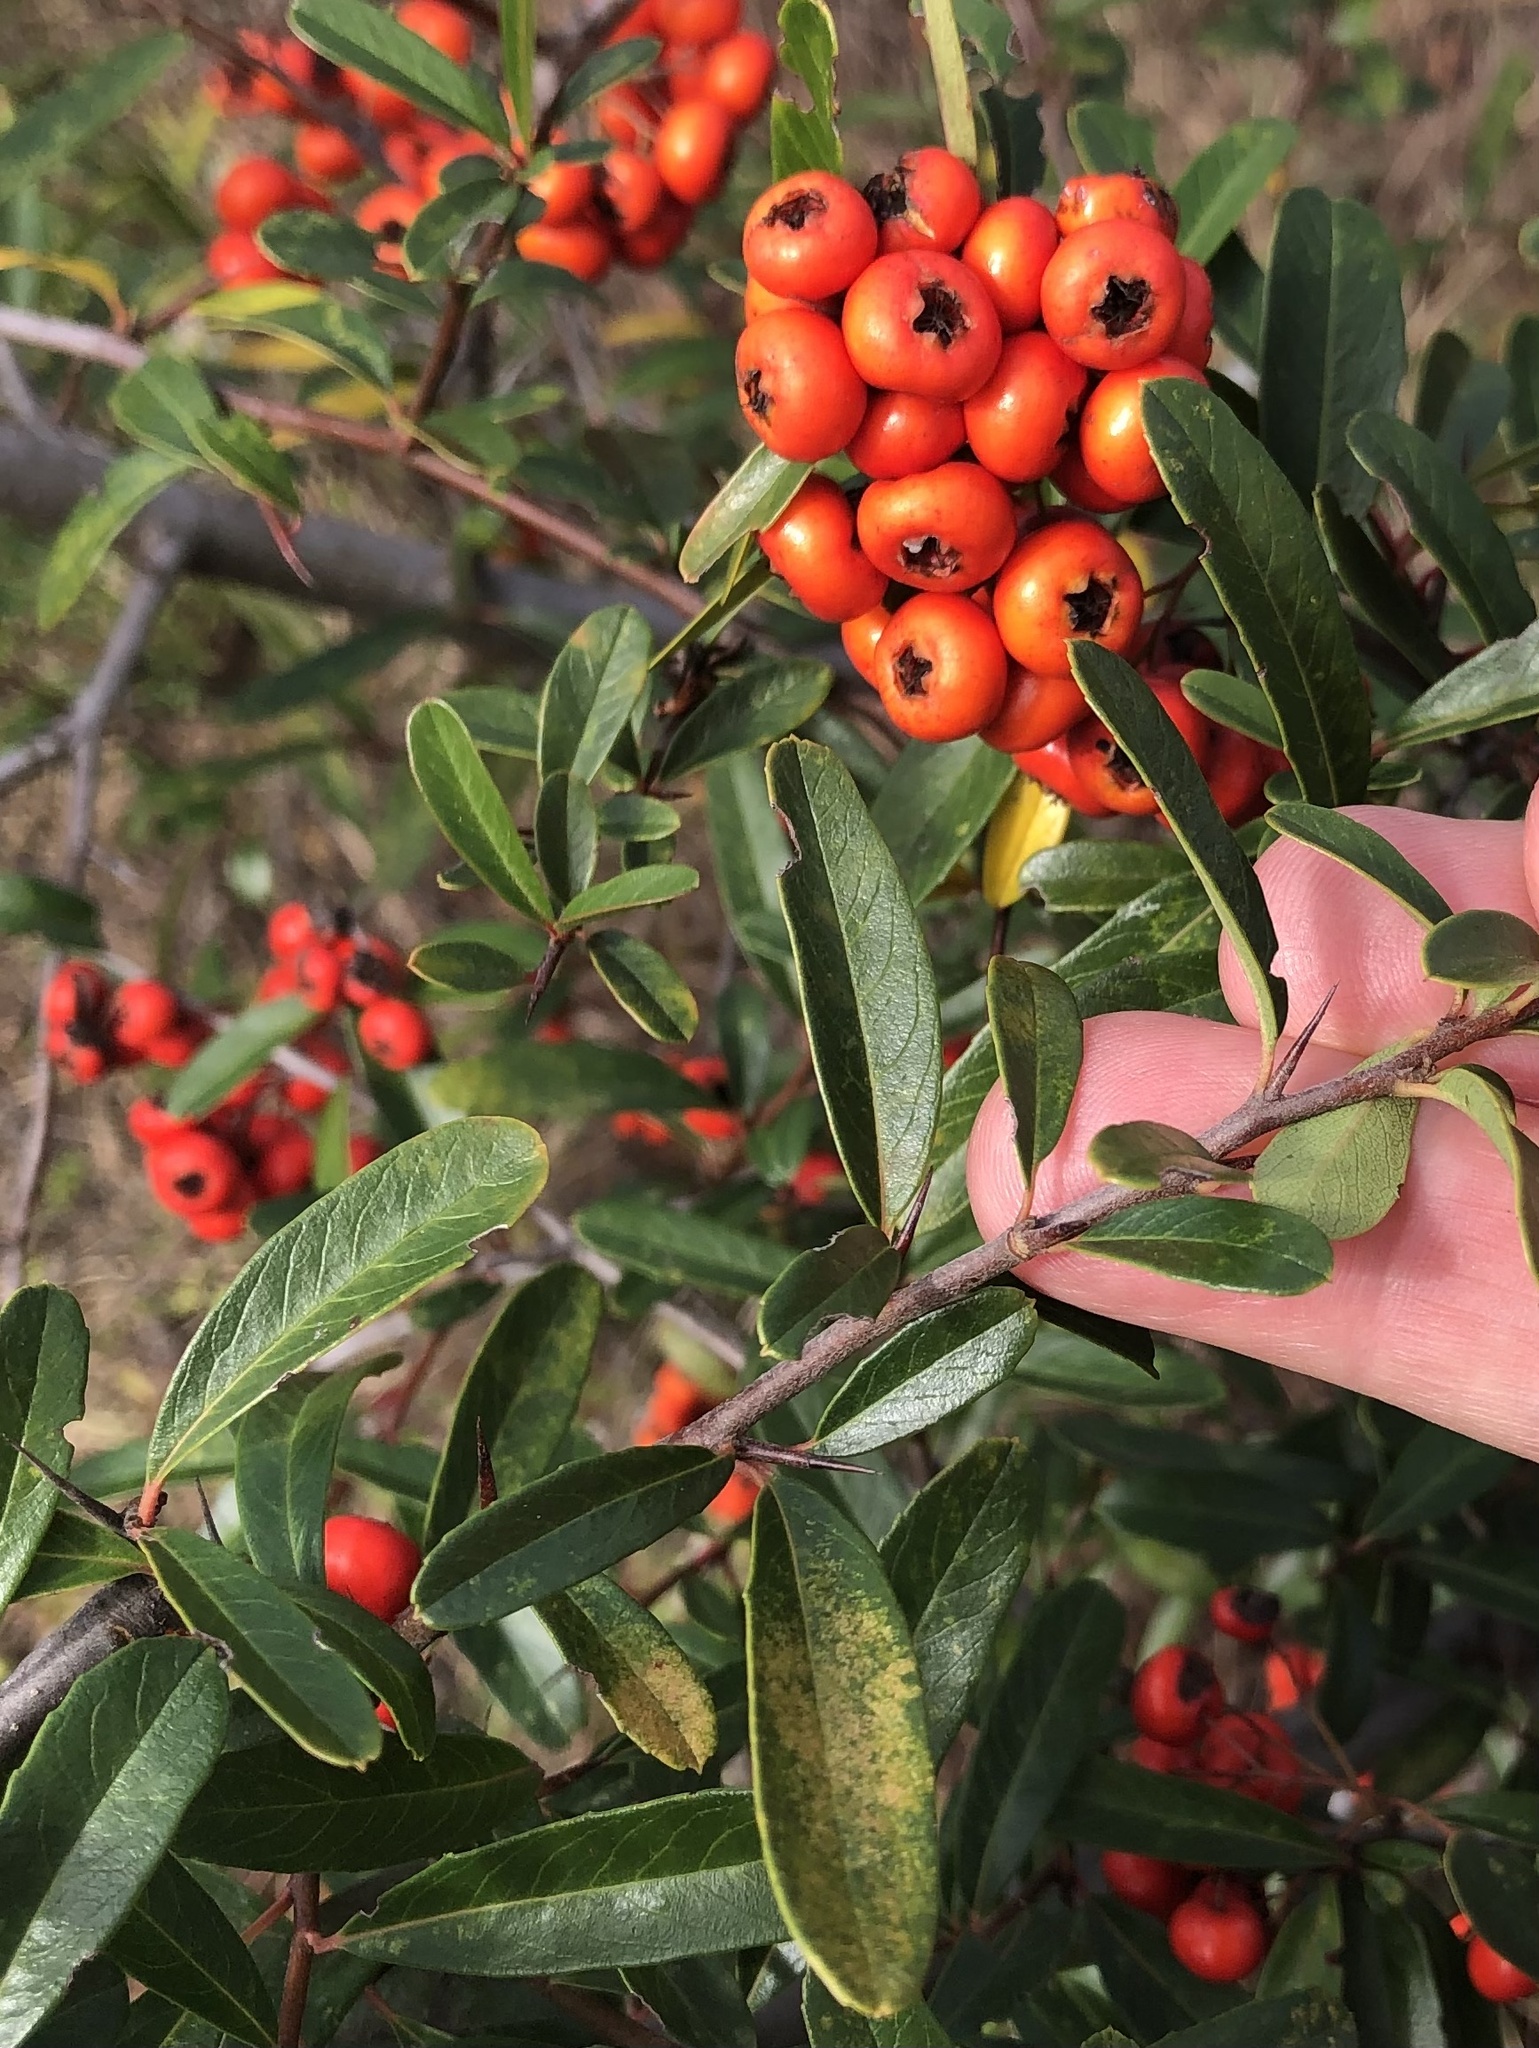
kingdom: Plantae
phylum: Tracheophyta
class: Magnoliopsida
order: Rosales
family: Rosaceae
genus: Pyracantha
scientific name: Pyracantha coccinea
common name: Firethorn
